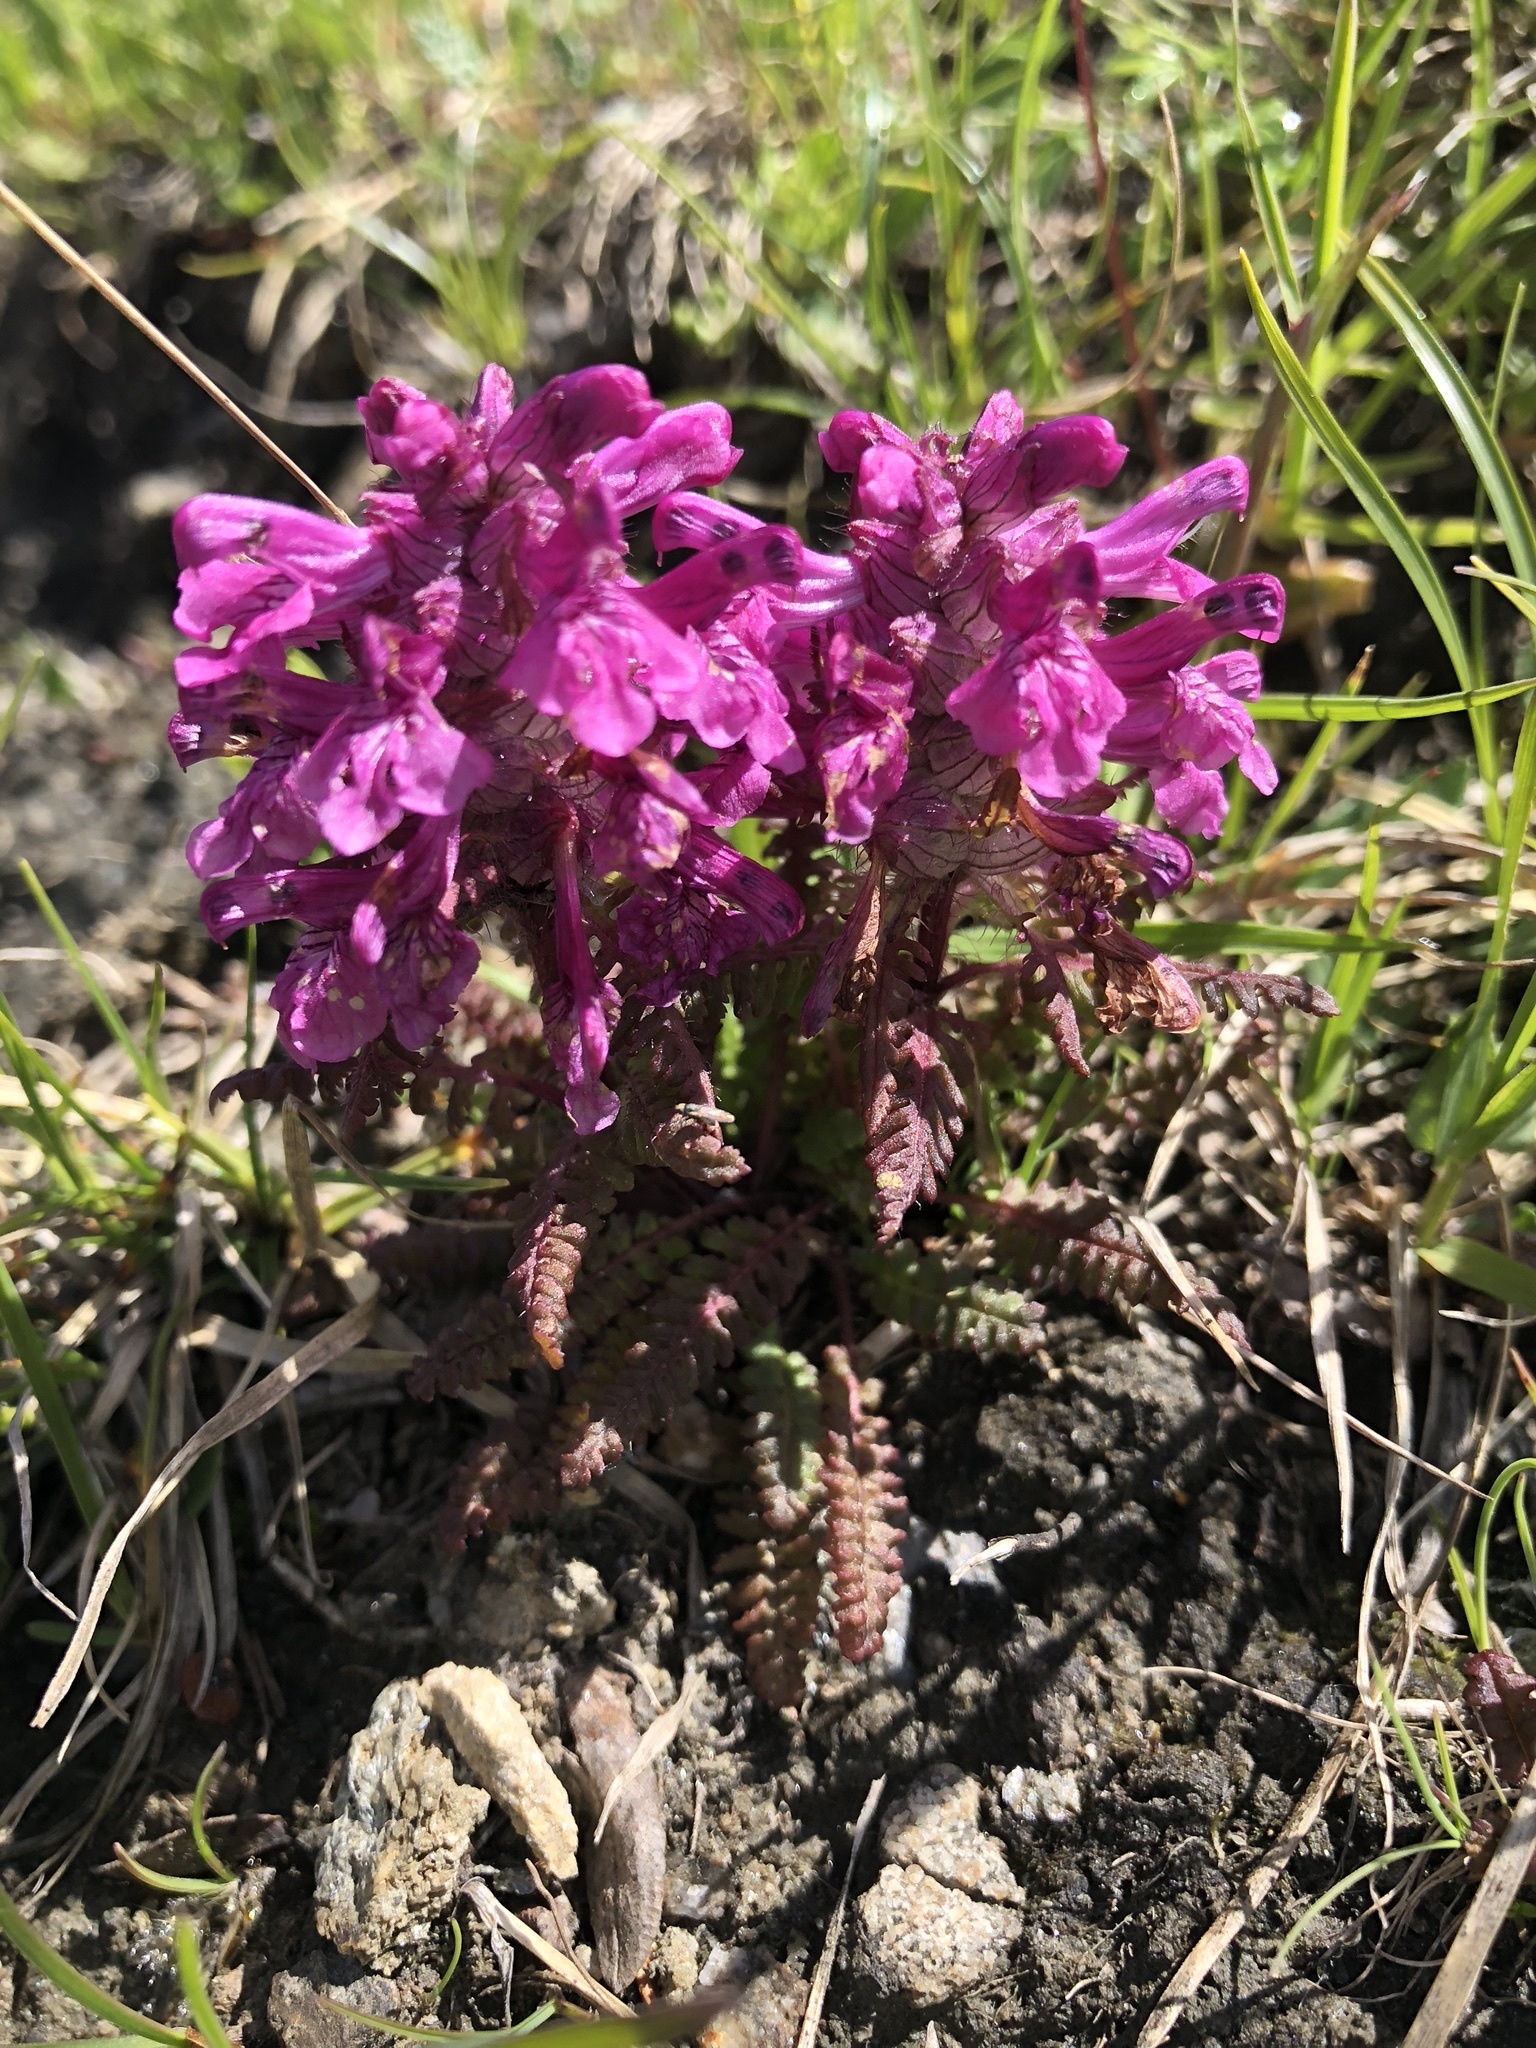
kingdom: Plantae
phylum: Tracheophyta
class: Magnoliopsida
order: Lamiales
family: Orobanchaceae
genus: Pedicularis
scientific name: Pedicularis verticillata
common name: Whorled lousewort
